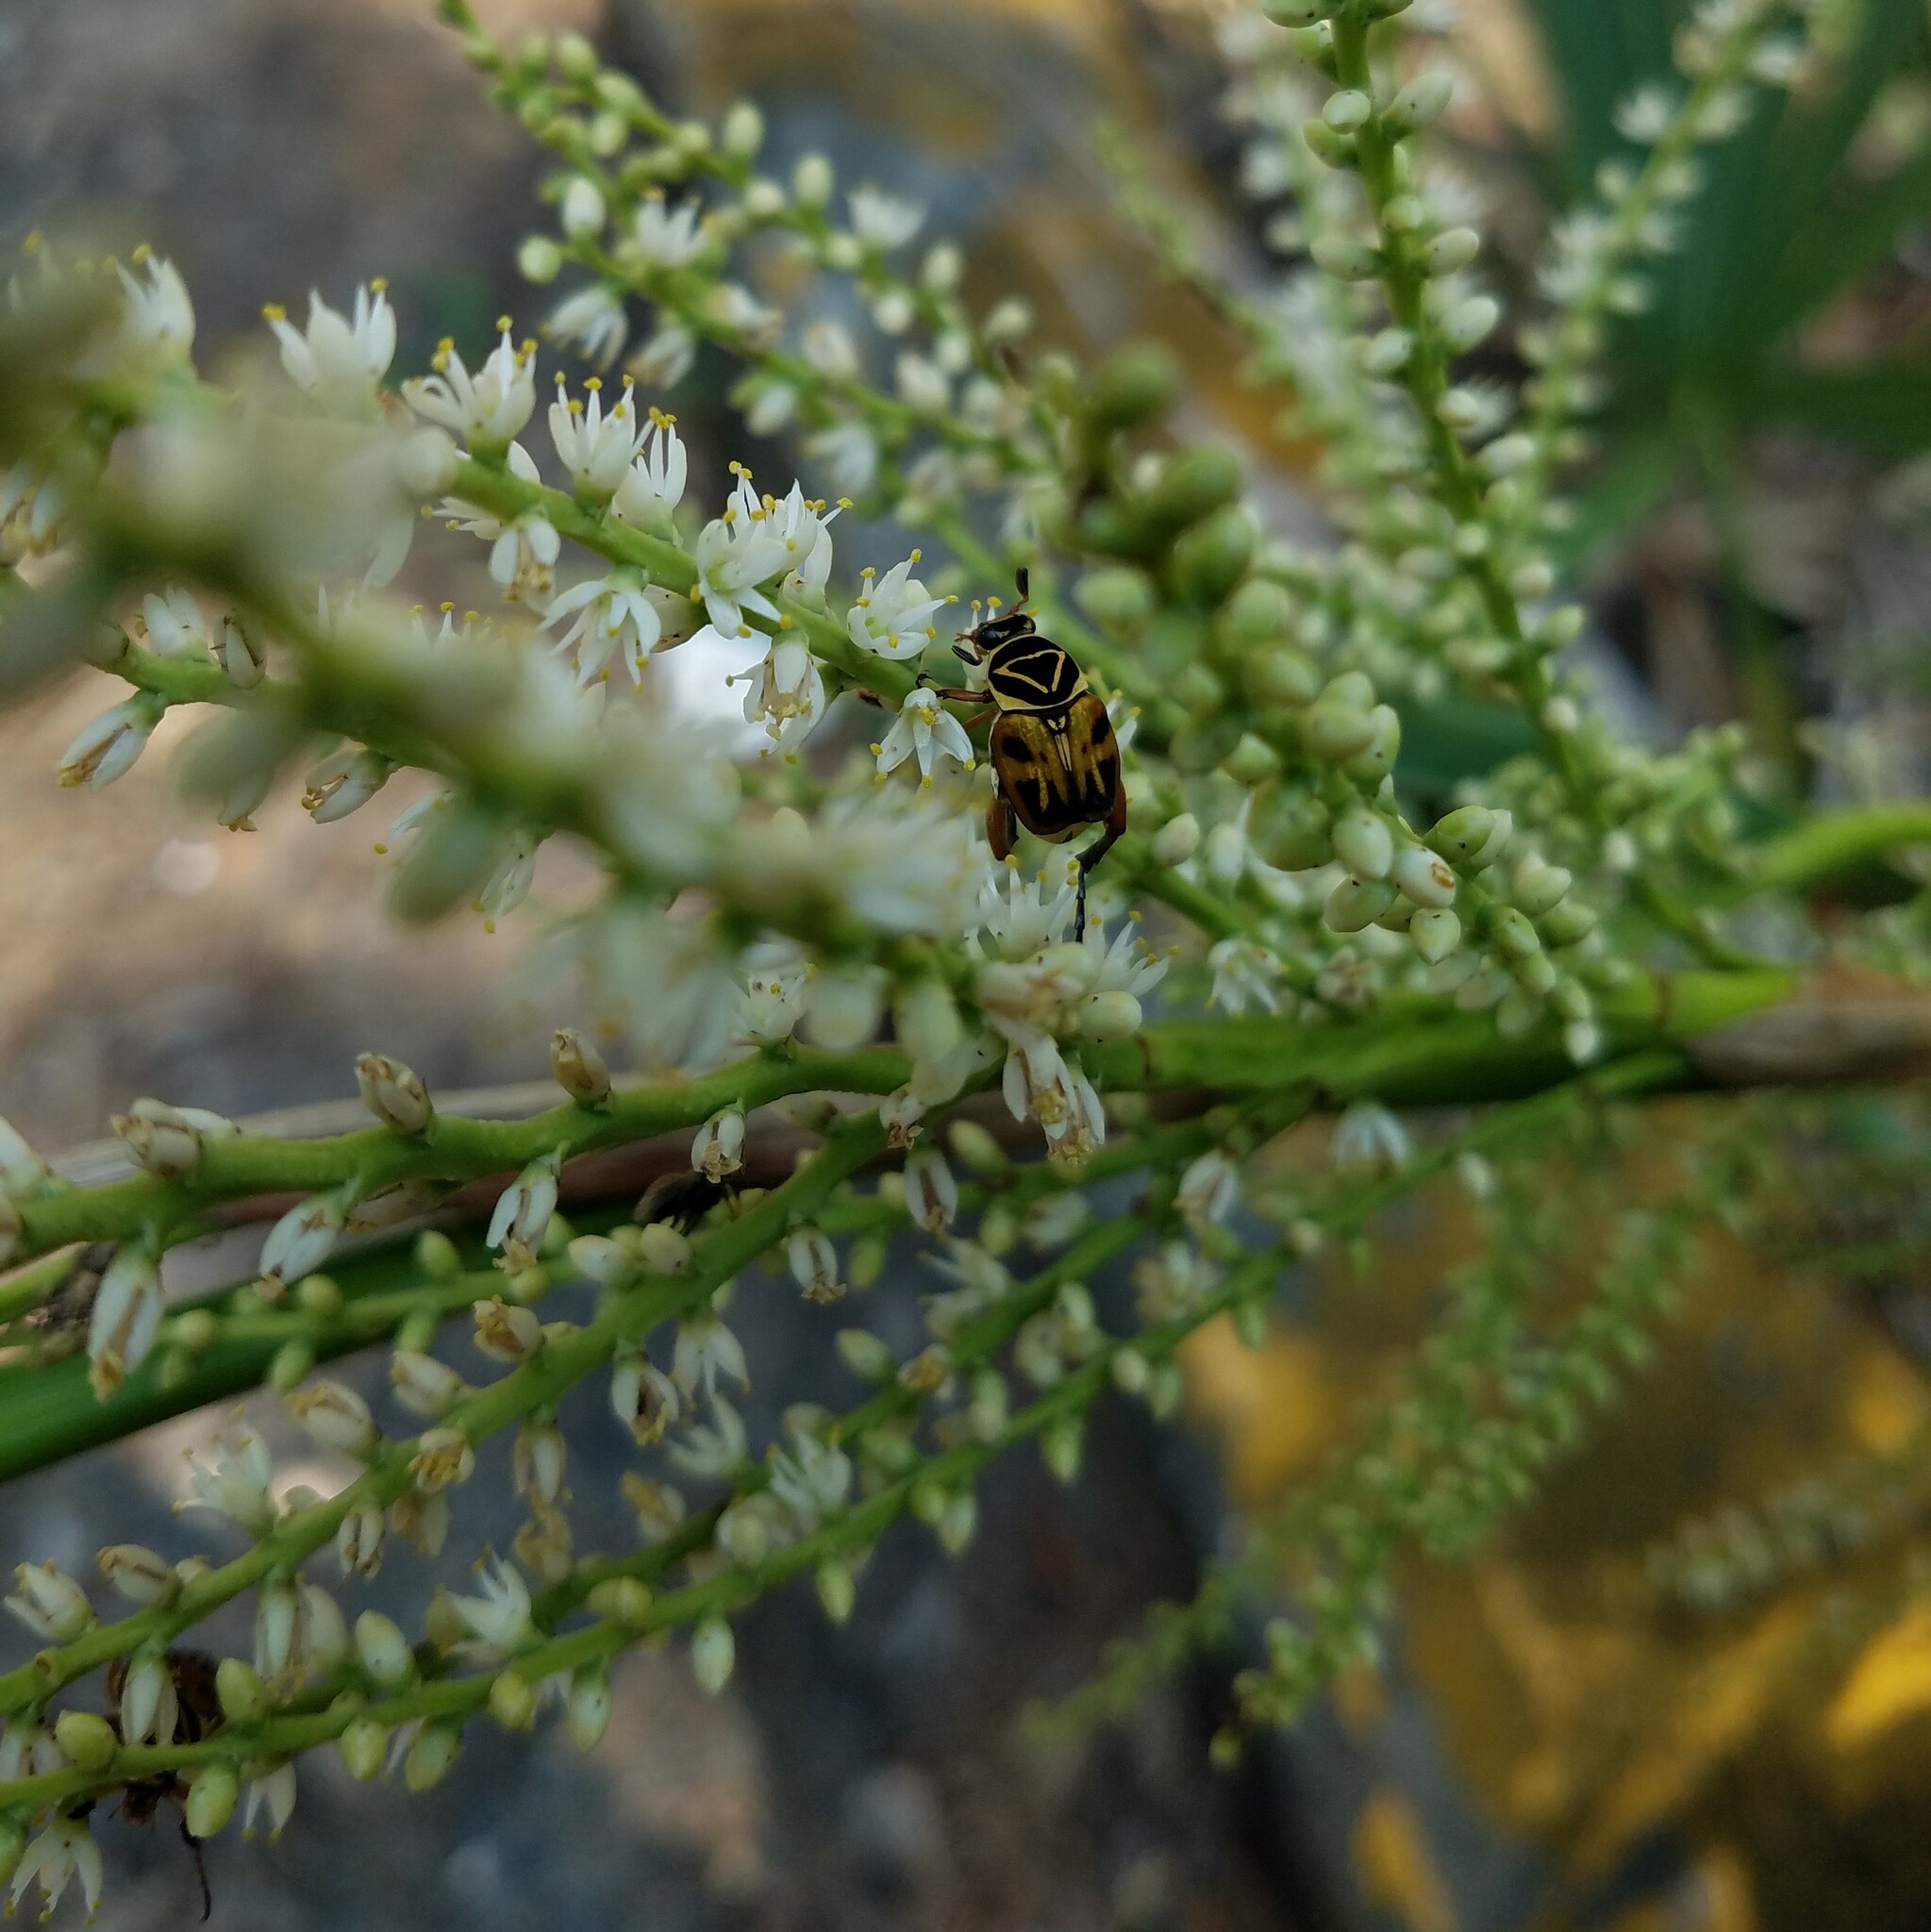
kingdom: Animalia
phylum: Arthropoda
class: Insecta
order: Coleoptera
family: Scarabaeidae
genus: Trigonopeltastes
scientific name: Trigonopeltastes delta
